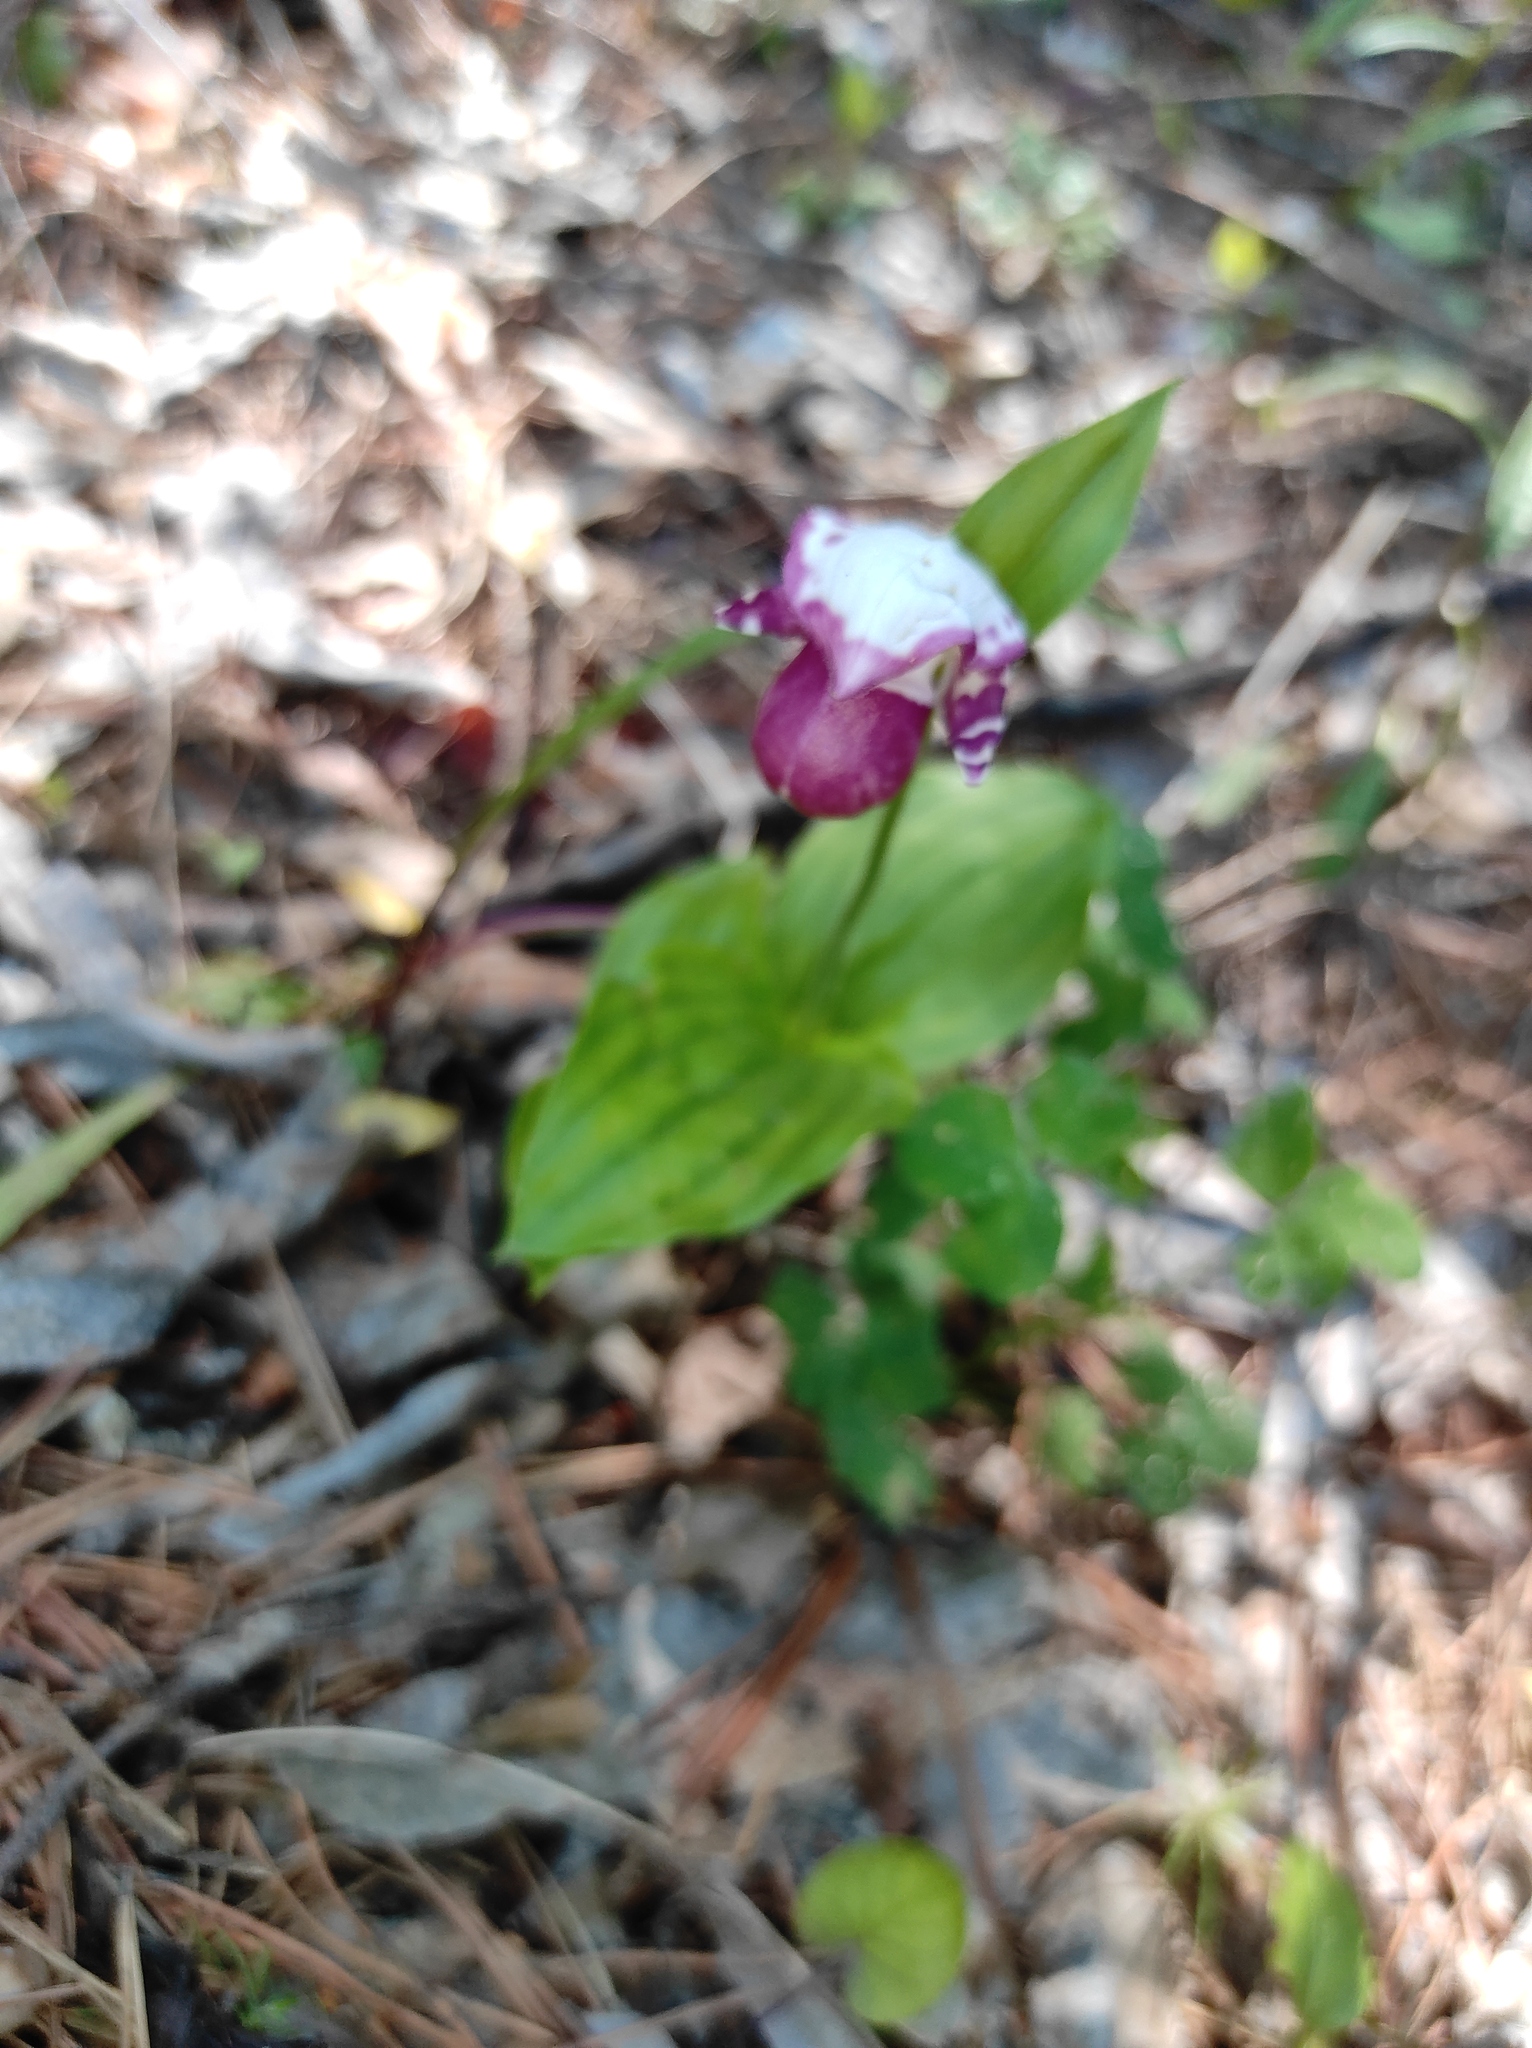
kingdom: Plantae
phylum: Tracheophyta
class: Liliopsida
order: Asparagales
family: Orchidaceae
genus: Cypripedium
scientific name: Cypripedium guttatum
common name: Pink lady slipper
